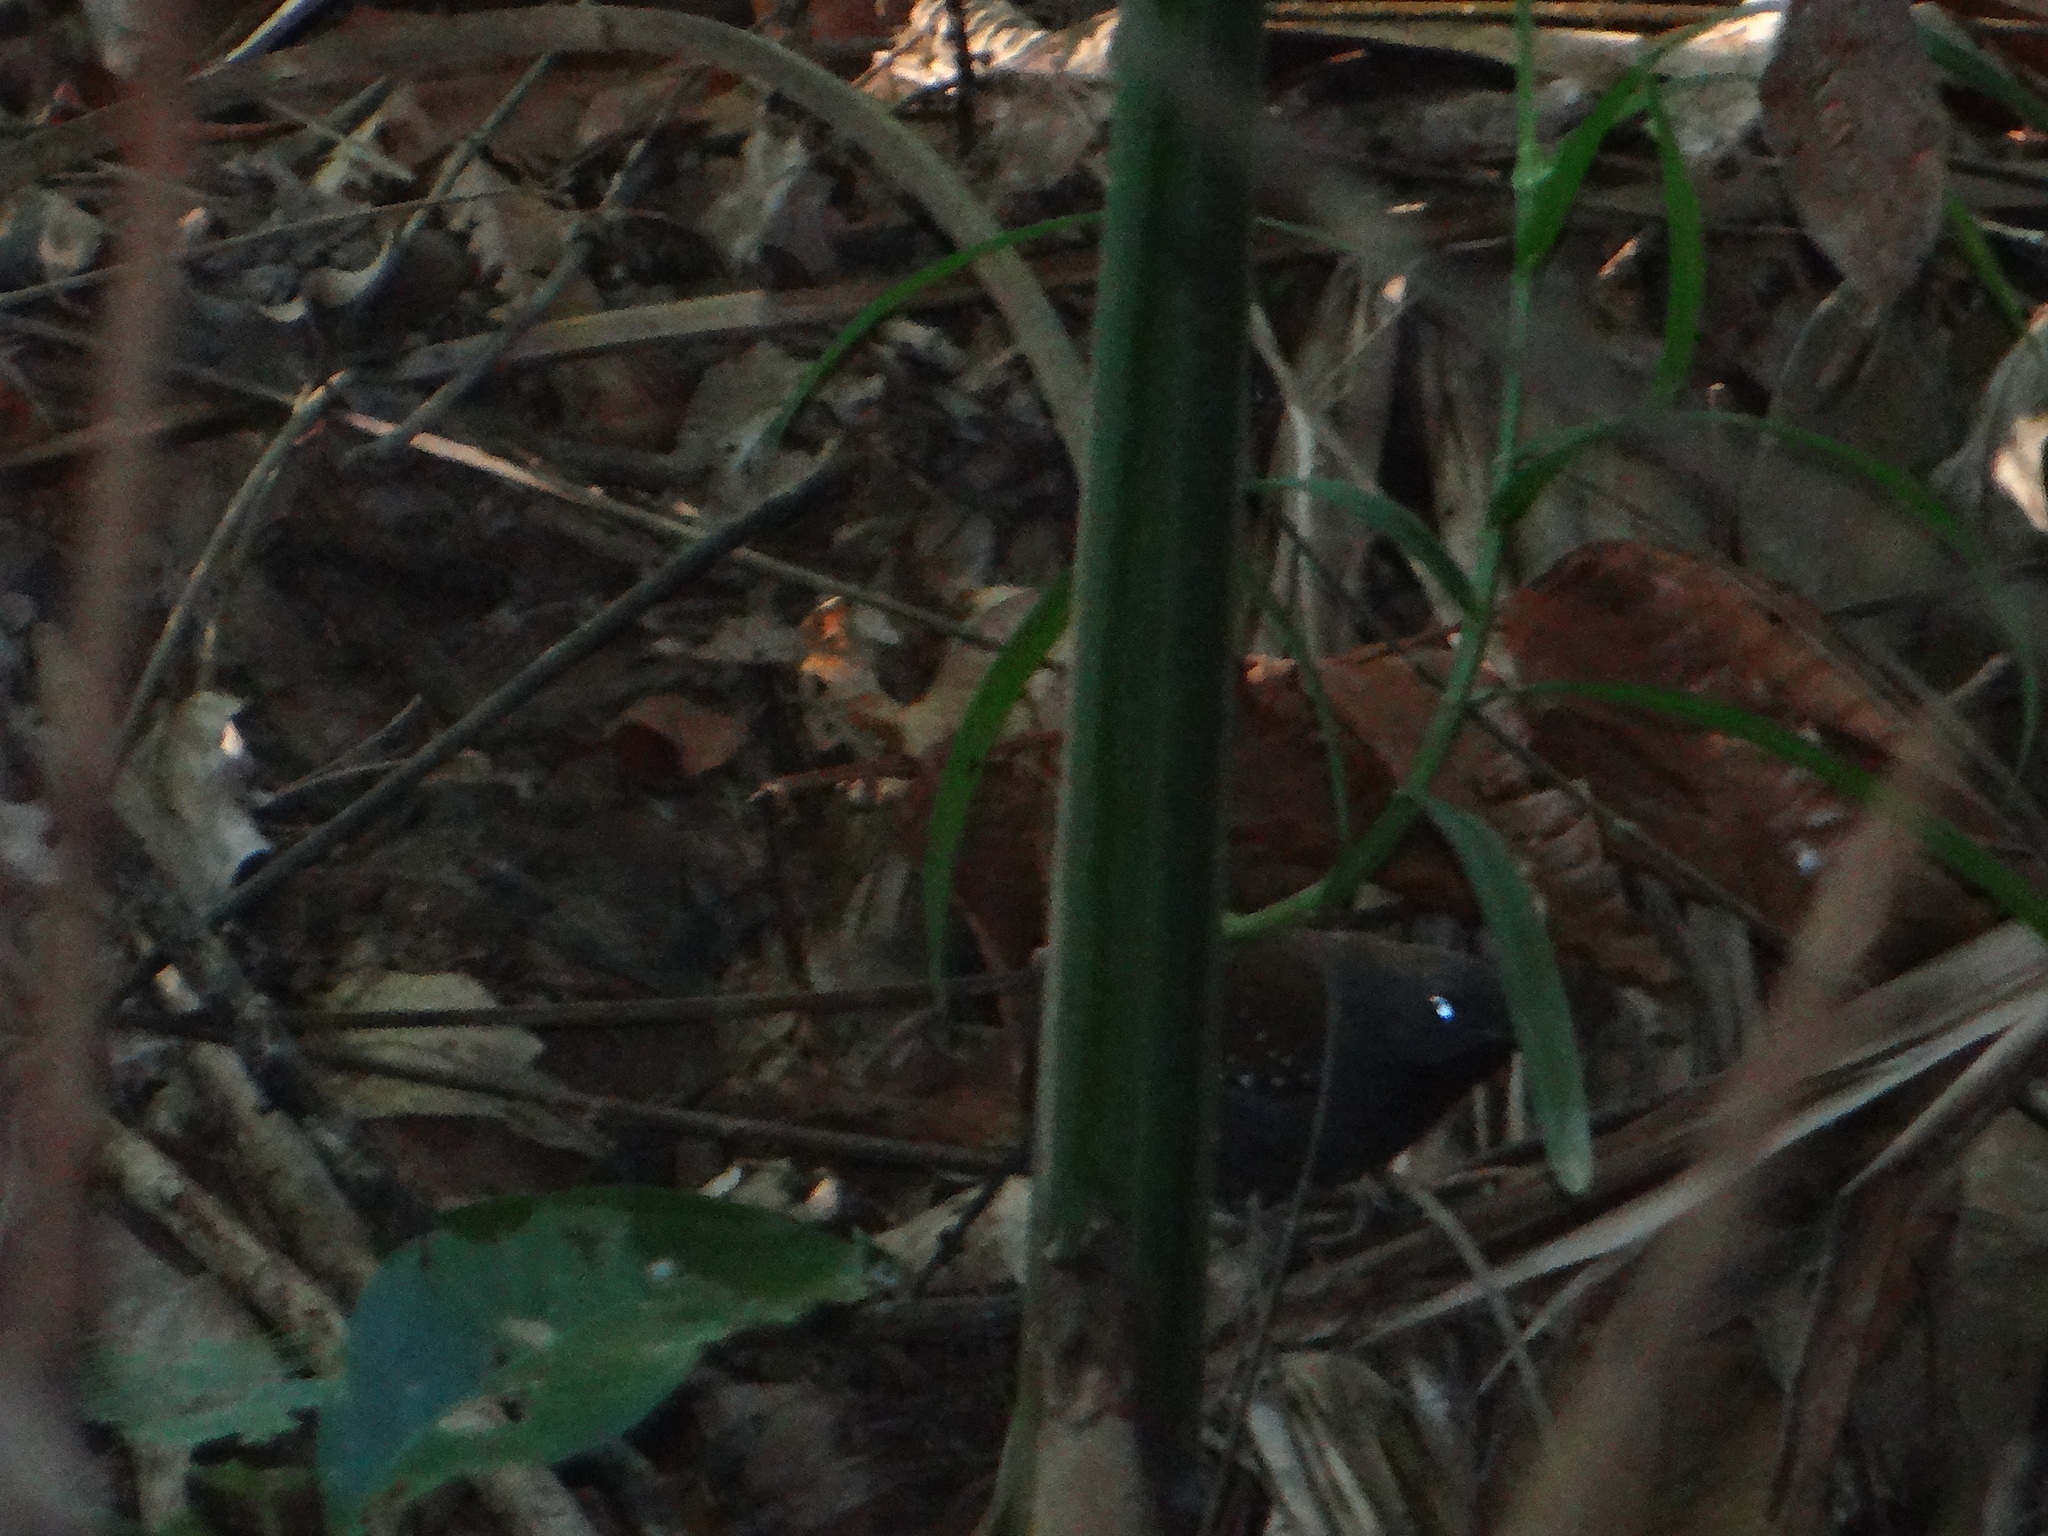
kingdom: Animalia
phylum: Chordata
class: Aves
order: Passeriformes
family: Thamnophilidae
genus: Myrmeciza
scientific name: Myrmeciza atrothorax
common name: Black-throated antbird
